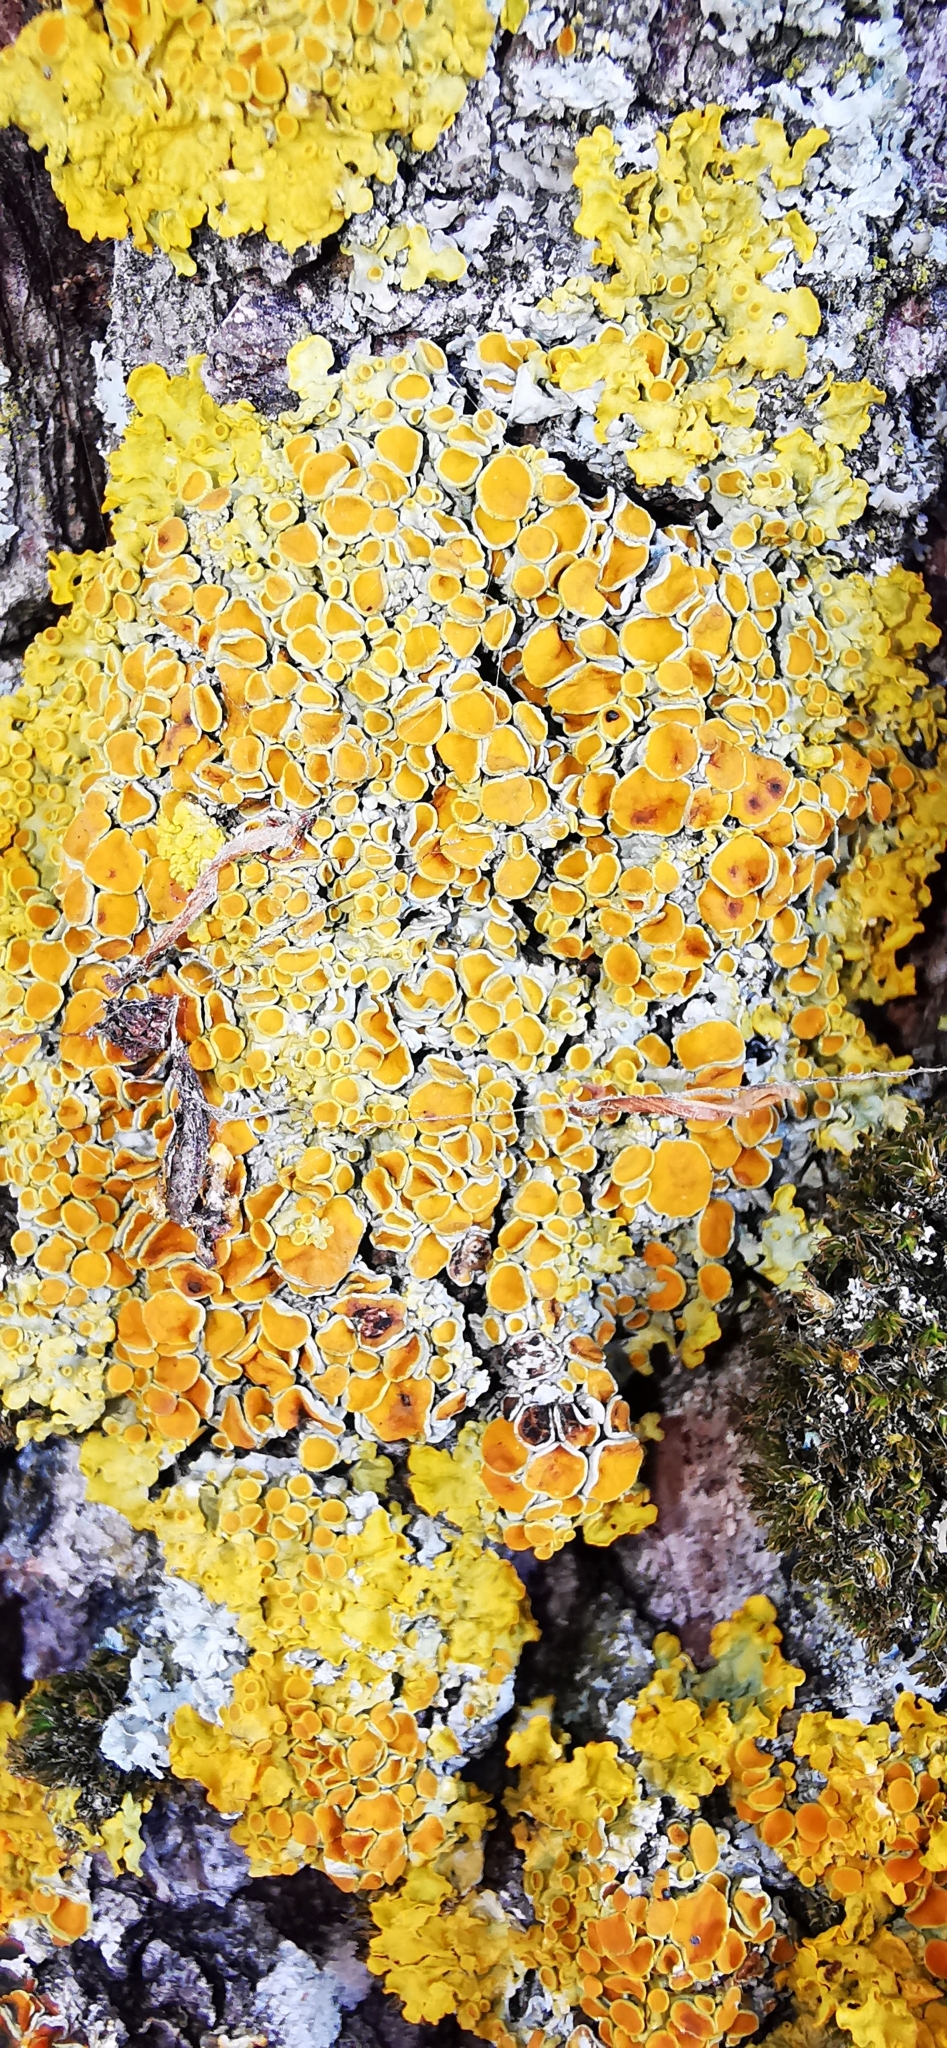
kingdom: Fungi
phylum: Ascomycota
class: Lecanoromycetes
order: Teloschistales
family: Teloschistaceae
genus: Xanthoria
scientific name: Xanthoria parietina
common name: Common orange lichen
